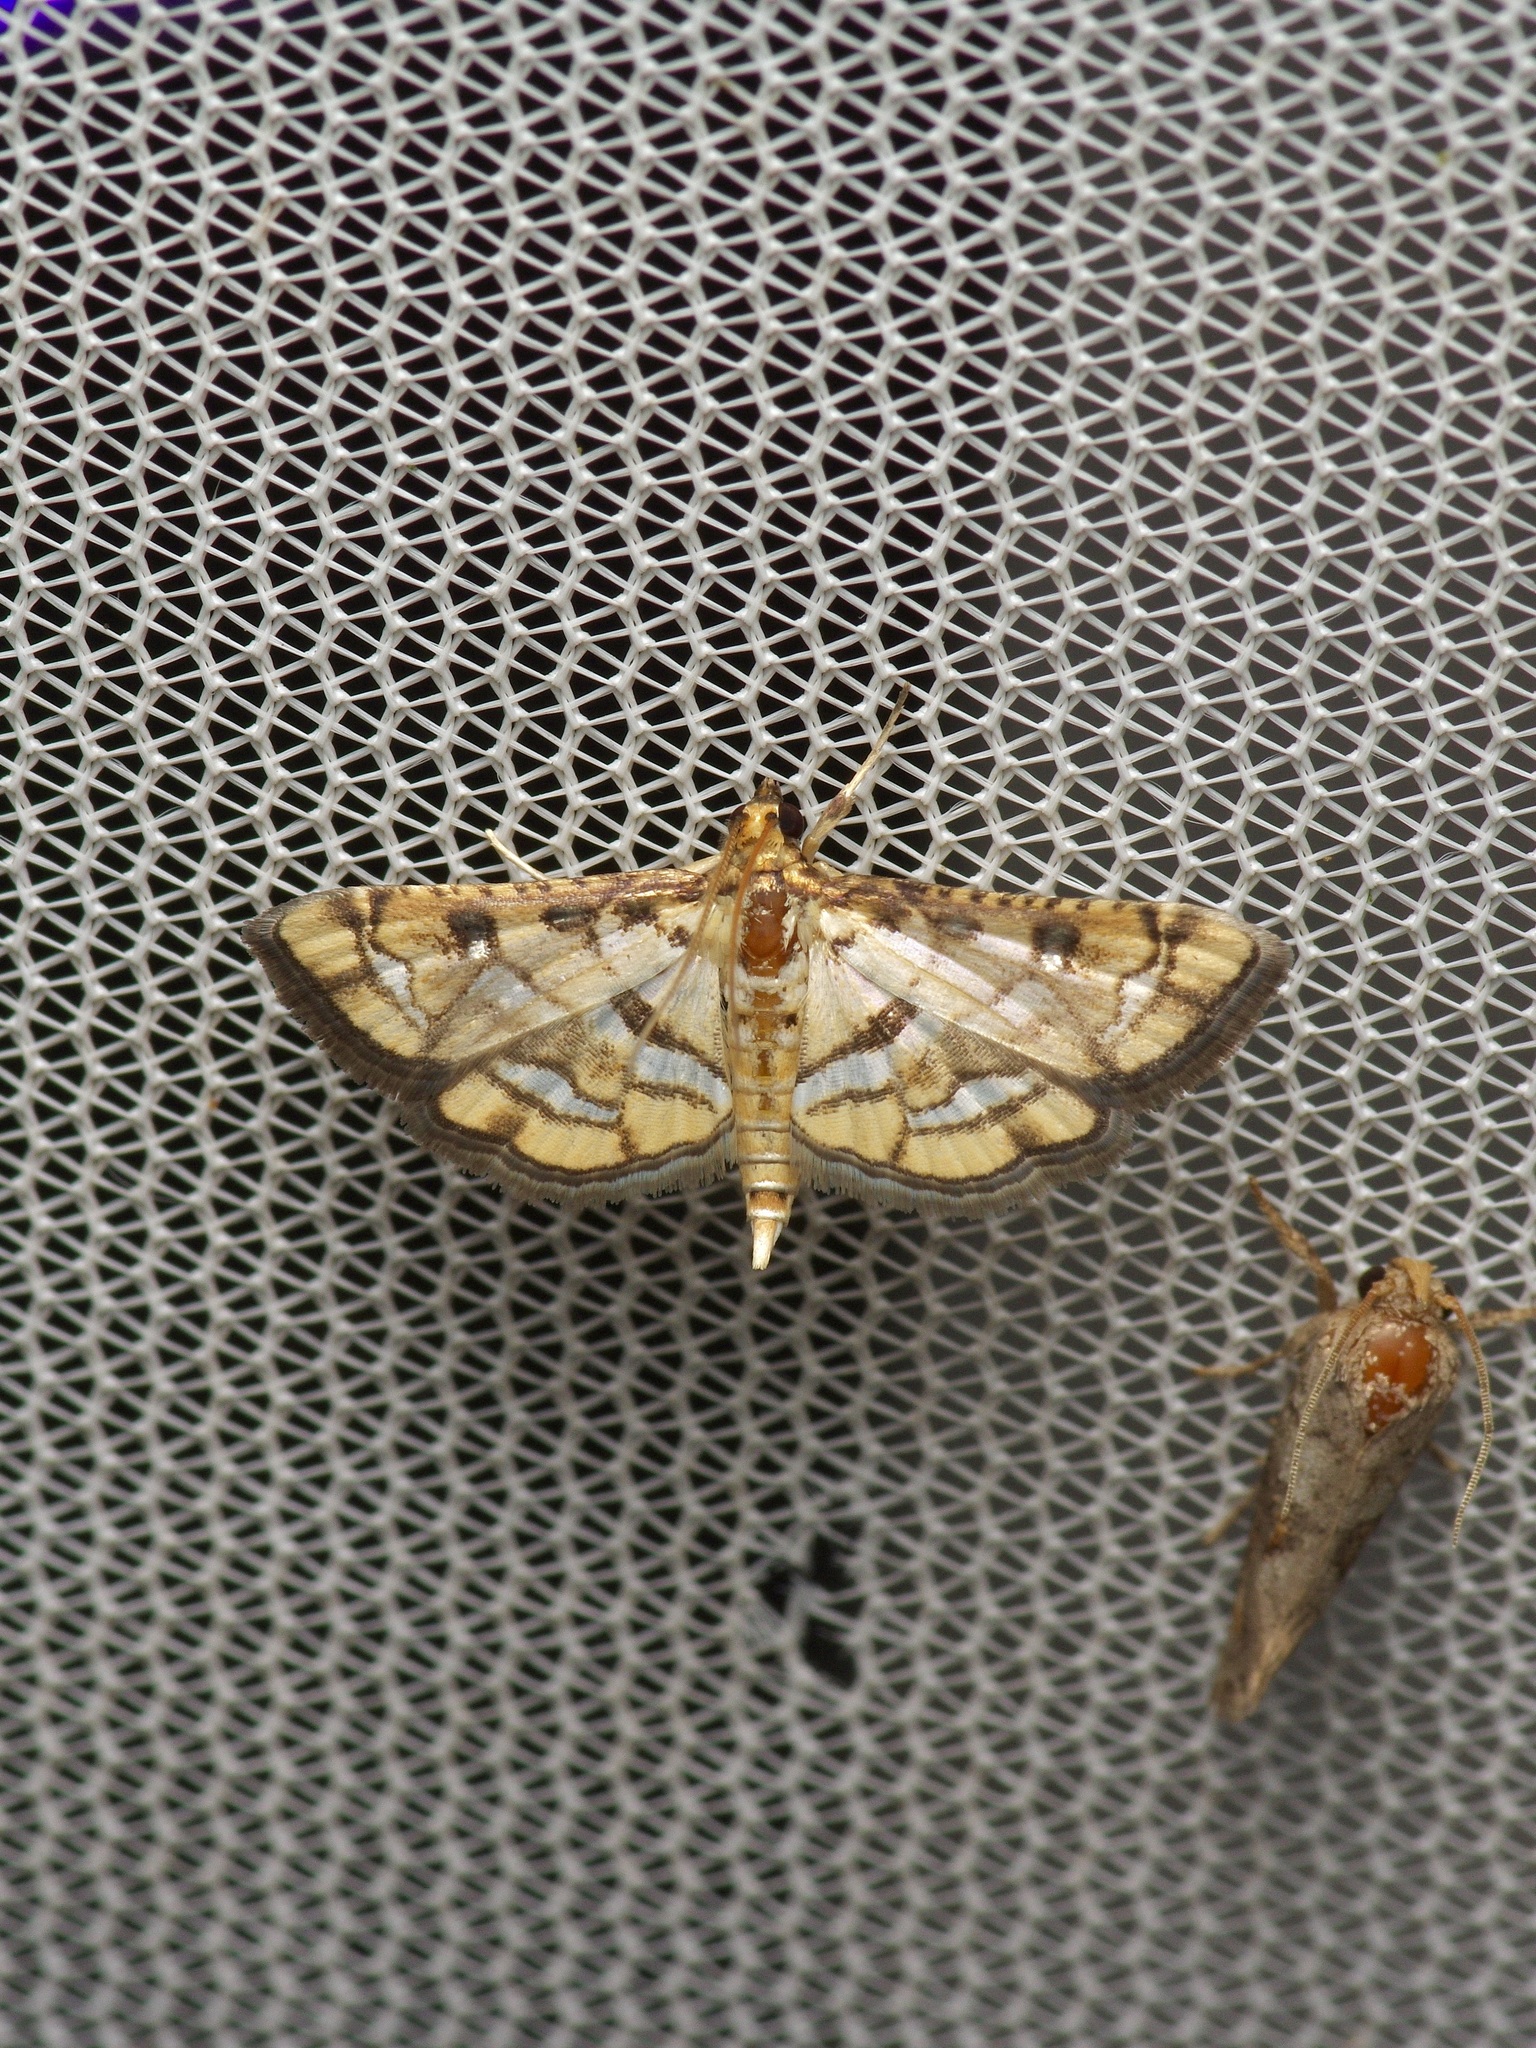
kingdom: Animalia
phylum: Arthropoda
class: Insecta
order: Lepidoptera
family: Crambidae
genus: Hileithia
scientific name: Hileithia magualis
